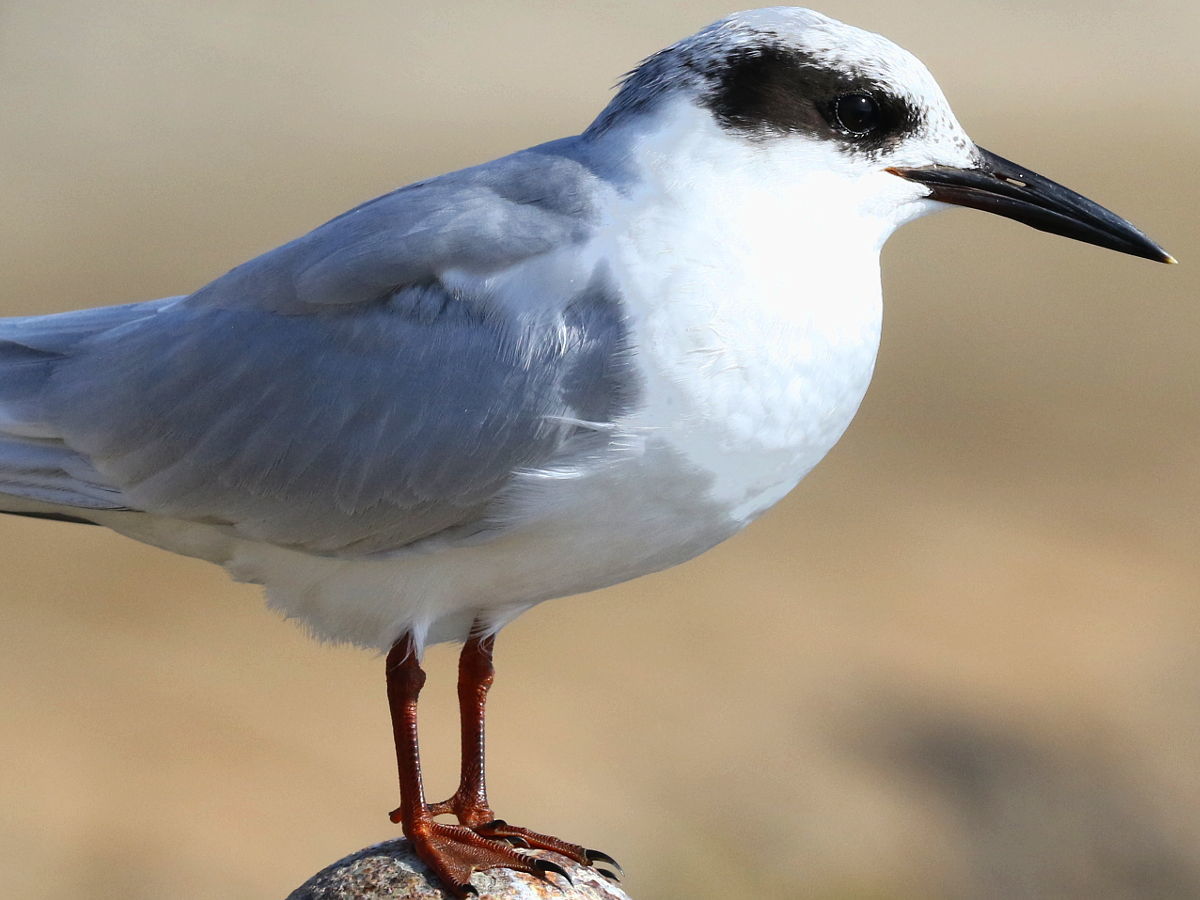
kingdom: Animalia
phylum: Chordata
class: Aves
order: Charadriiformes
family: Laridae
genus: Sterna
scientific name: Sterna forsteri
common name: Forster's tern
